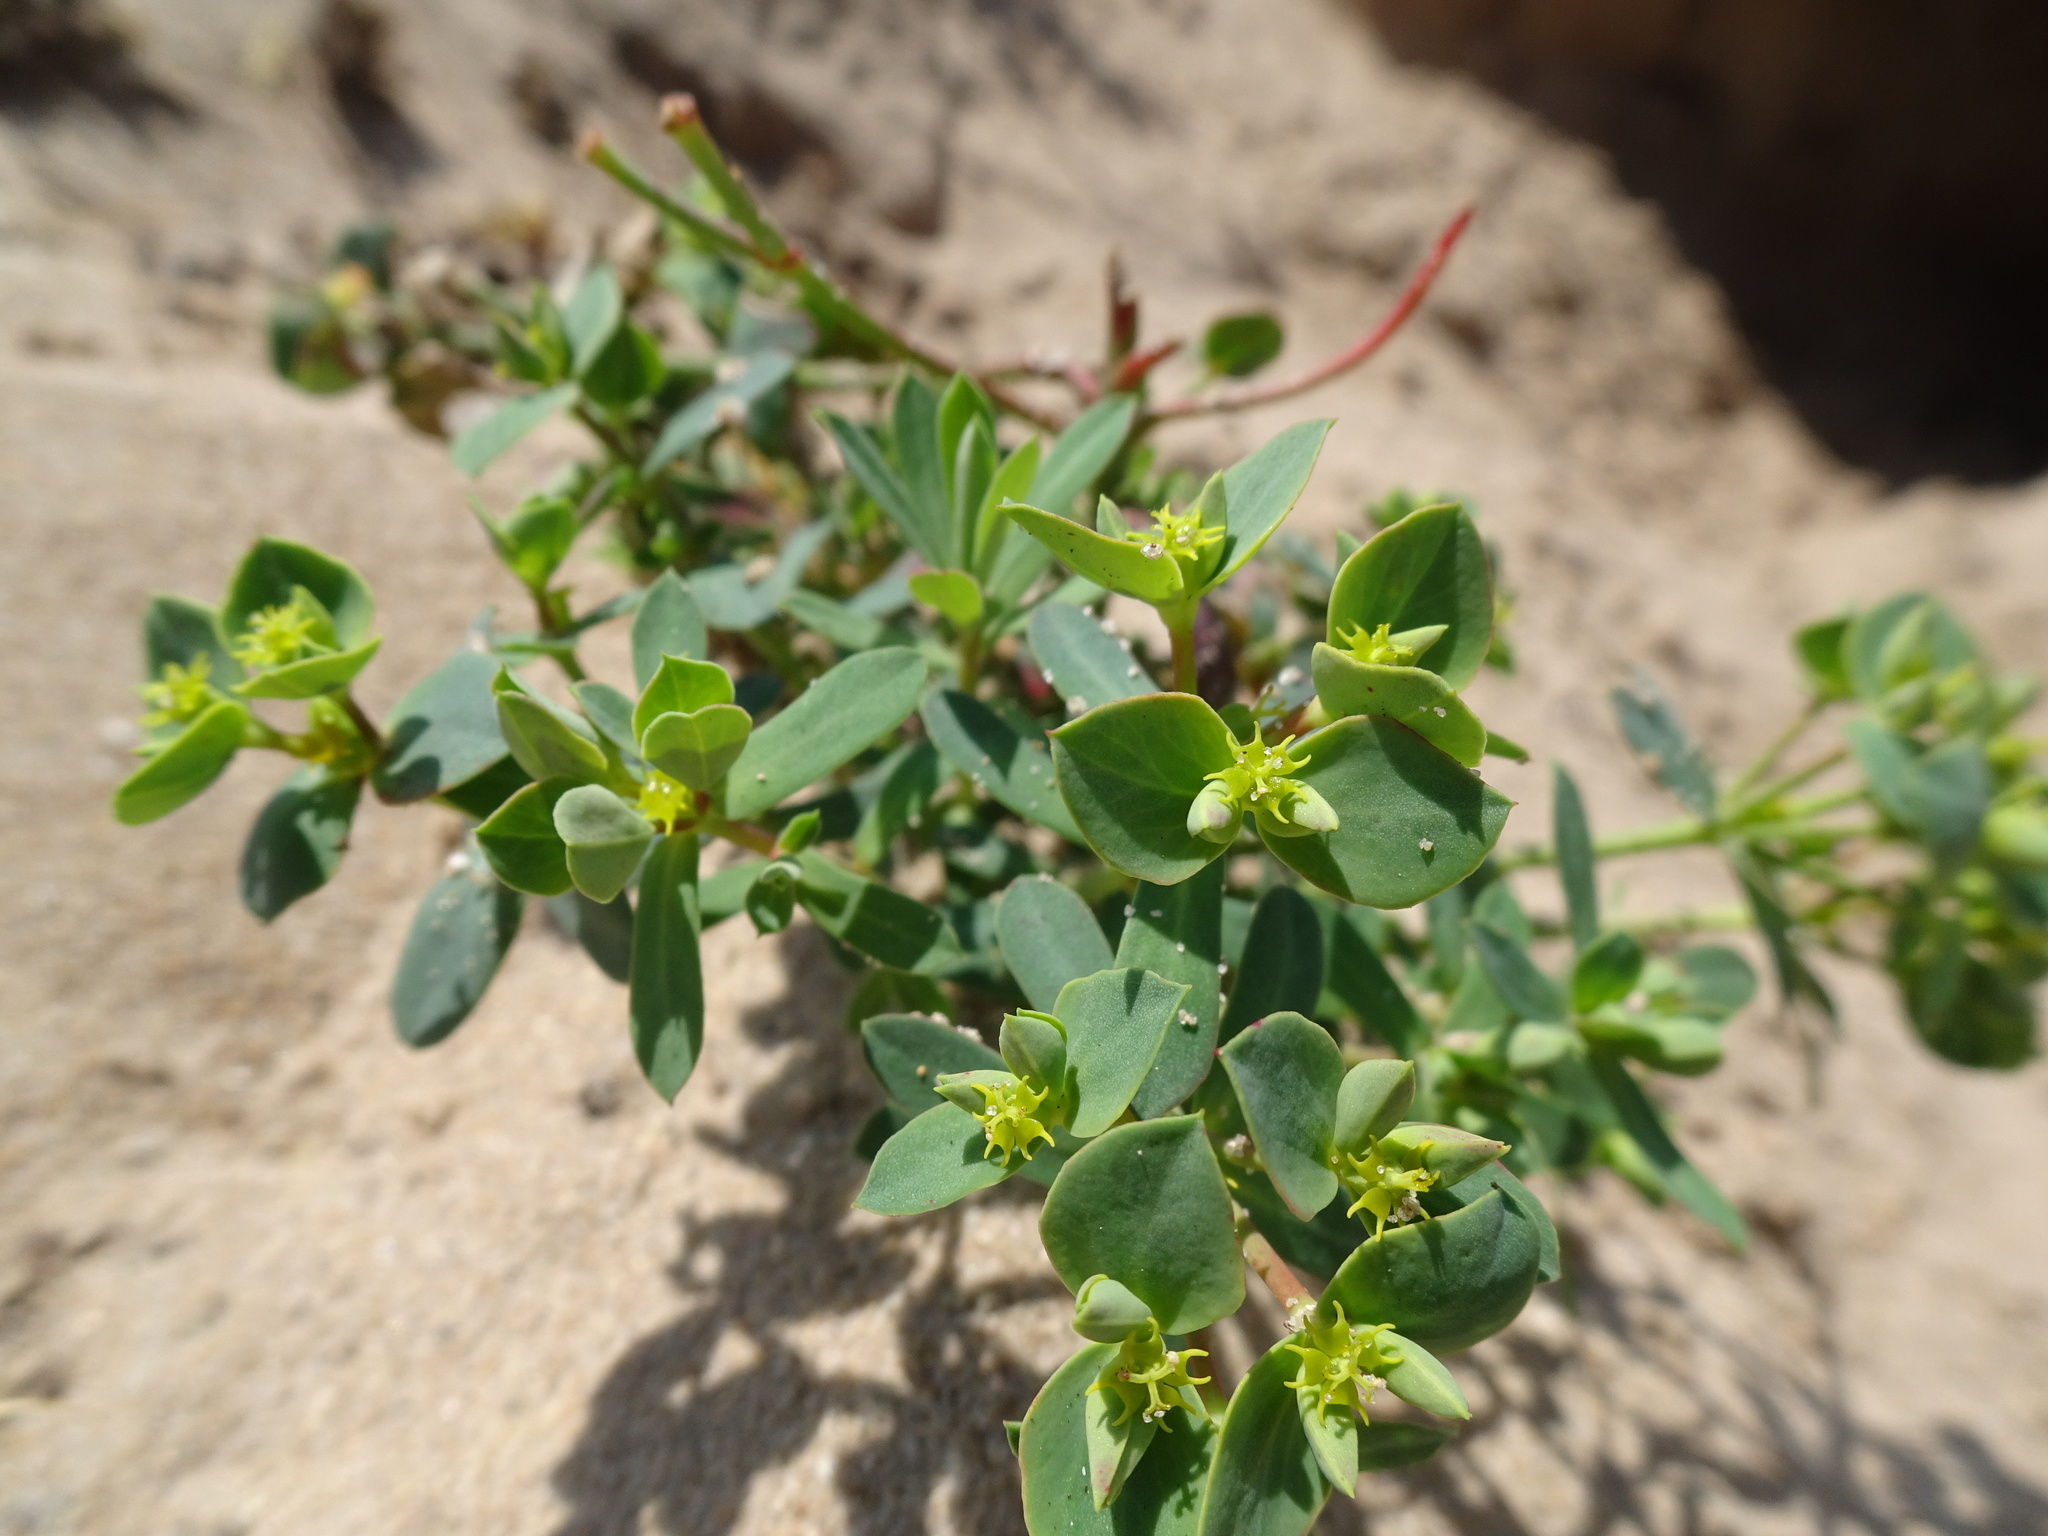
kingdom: Plantae
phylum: Tracheophyta
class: Magnoliopsida
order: Malpighiales
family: Euphorbiaceae
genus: Euphorbia
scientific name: Euphorbia portlandica
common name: Portland spurge
